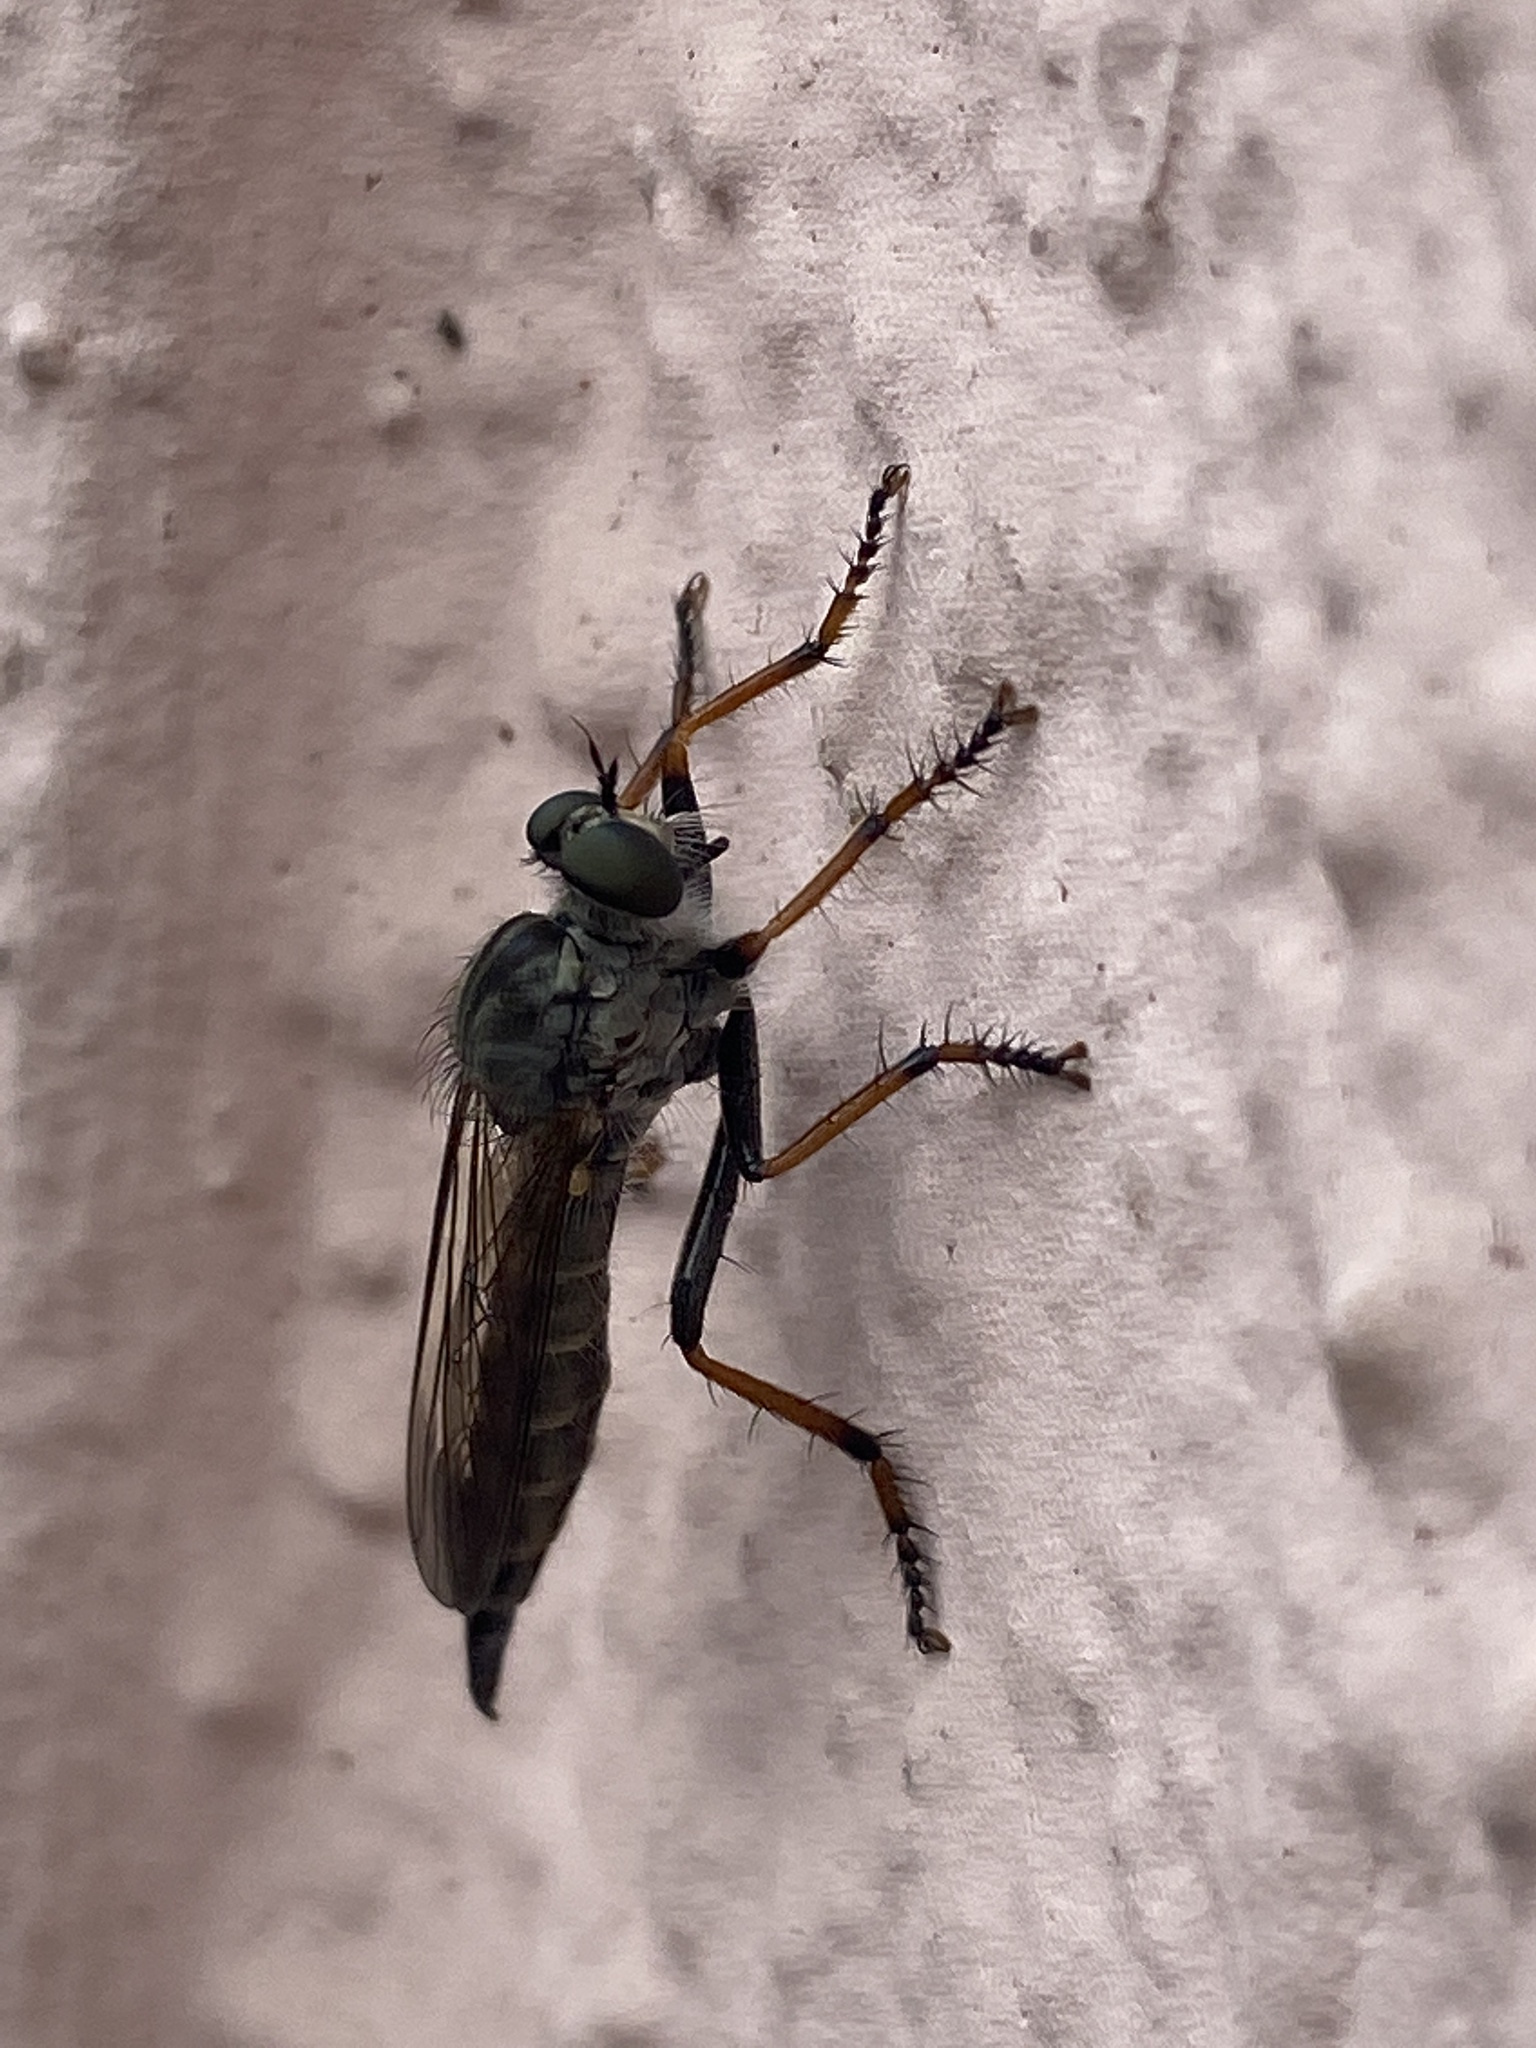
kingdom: Animalia
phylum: Arthropoda
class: Insecta
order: Diptera
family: Asilidae
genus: Paritamus
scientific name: Paritamus geniculatus
